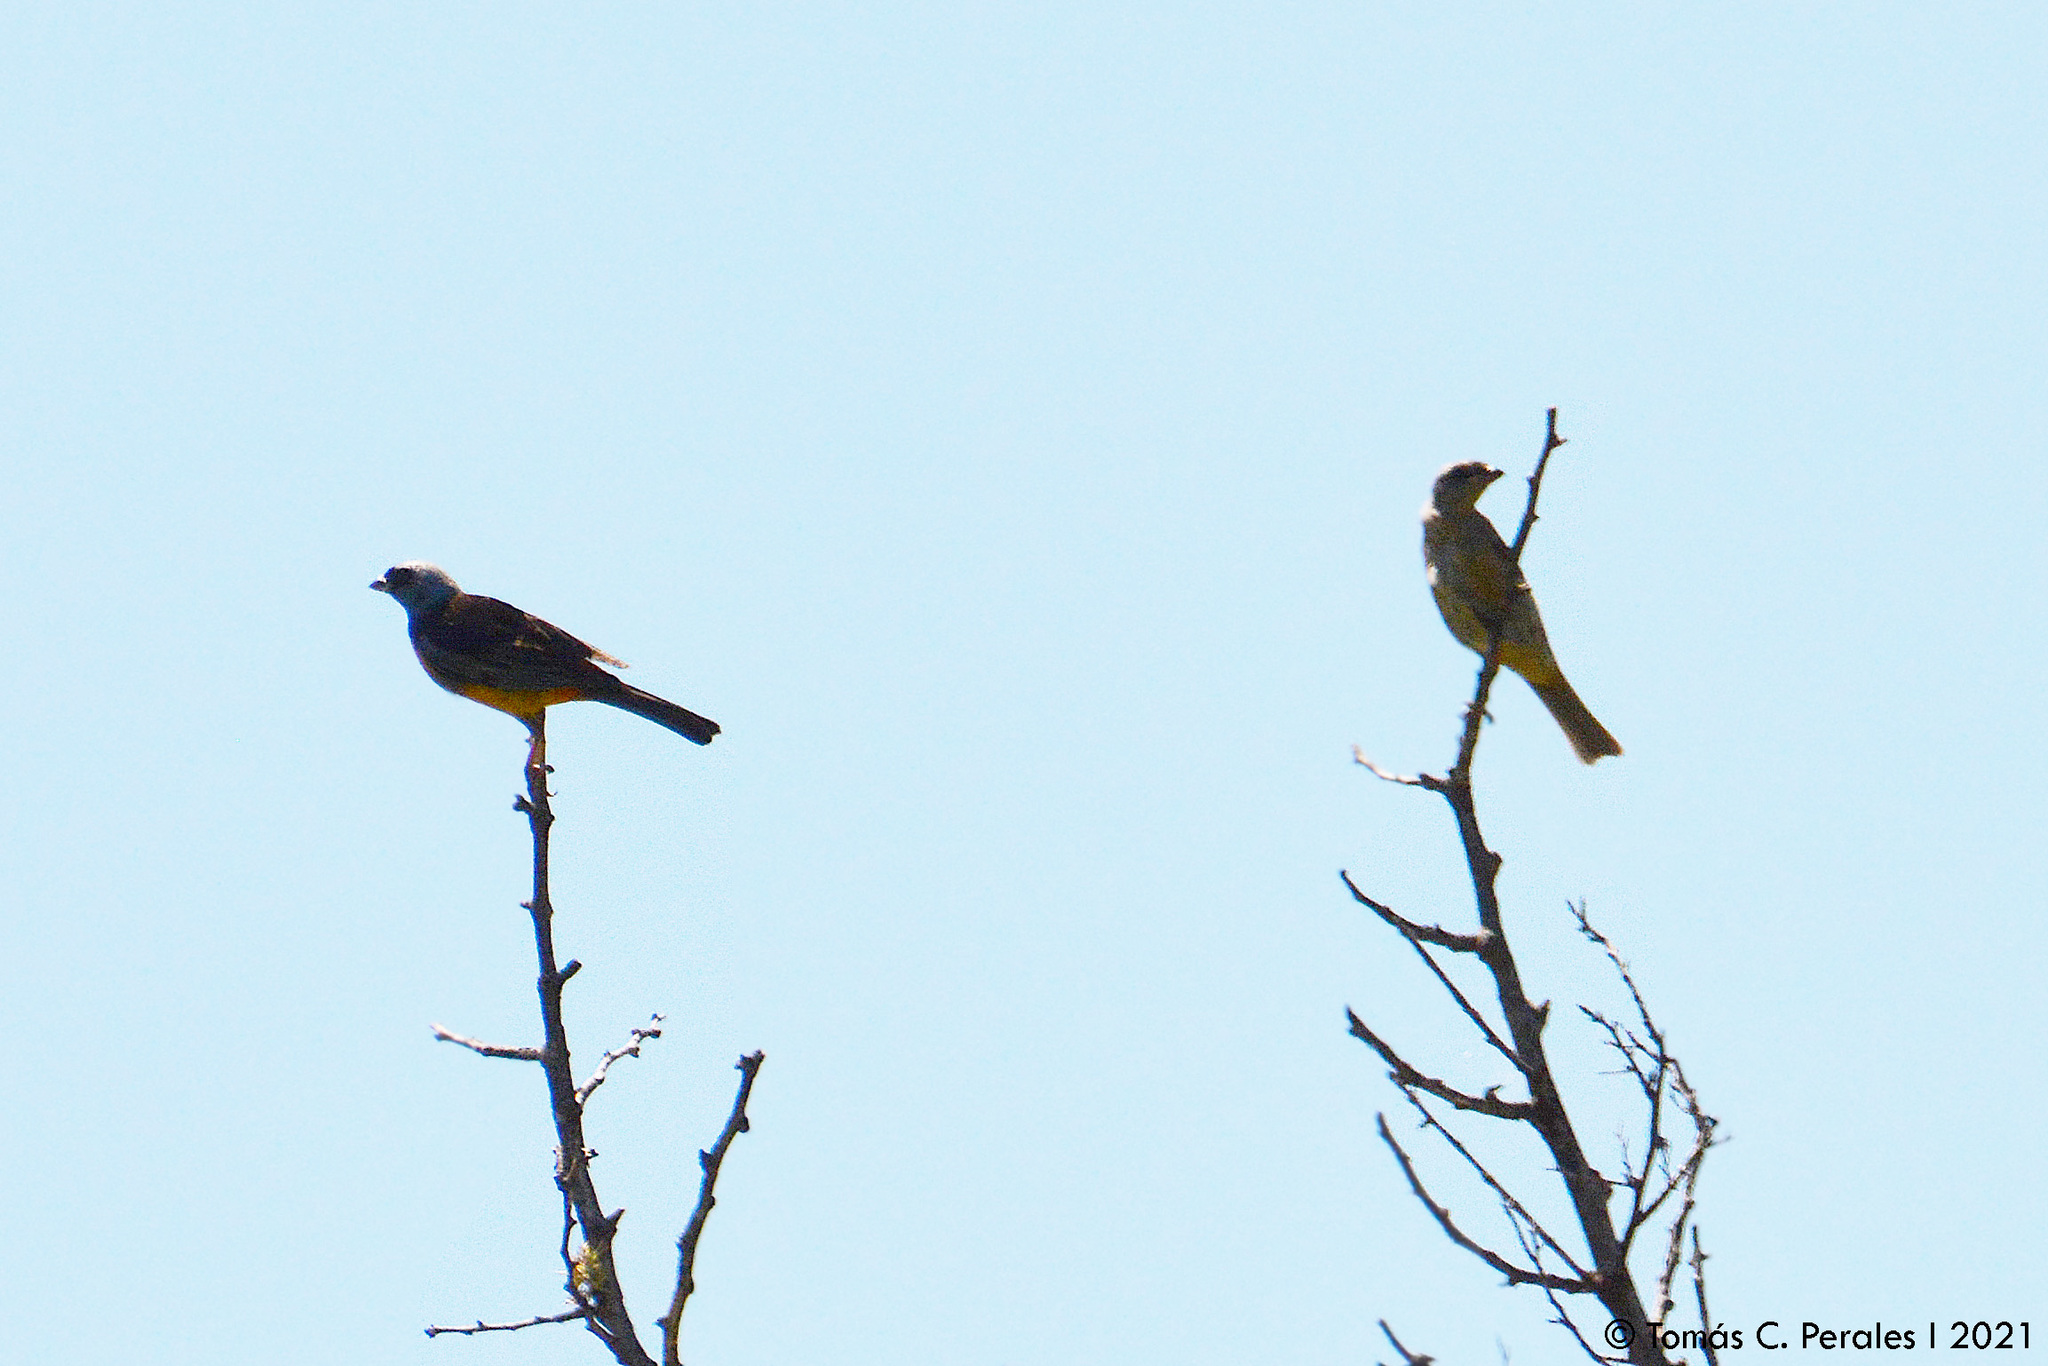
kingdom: Animalia
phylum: Chordata
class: Aves
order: Passeriformes
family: Thraupidae
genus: Rauenia
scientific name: Rauenia bonariensis
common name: Blue-and-yellow tanager
